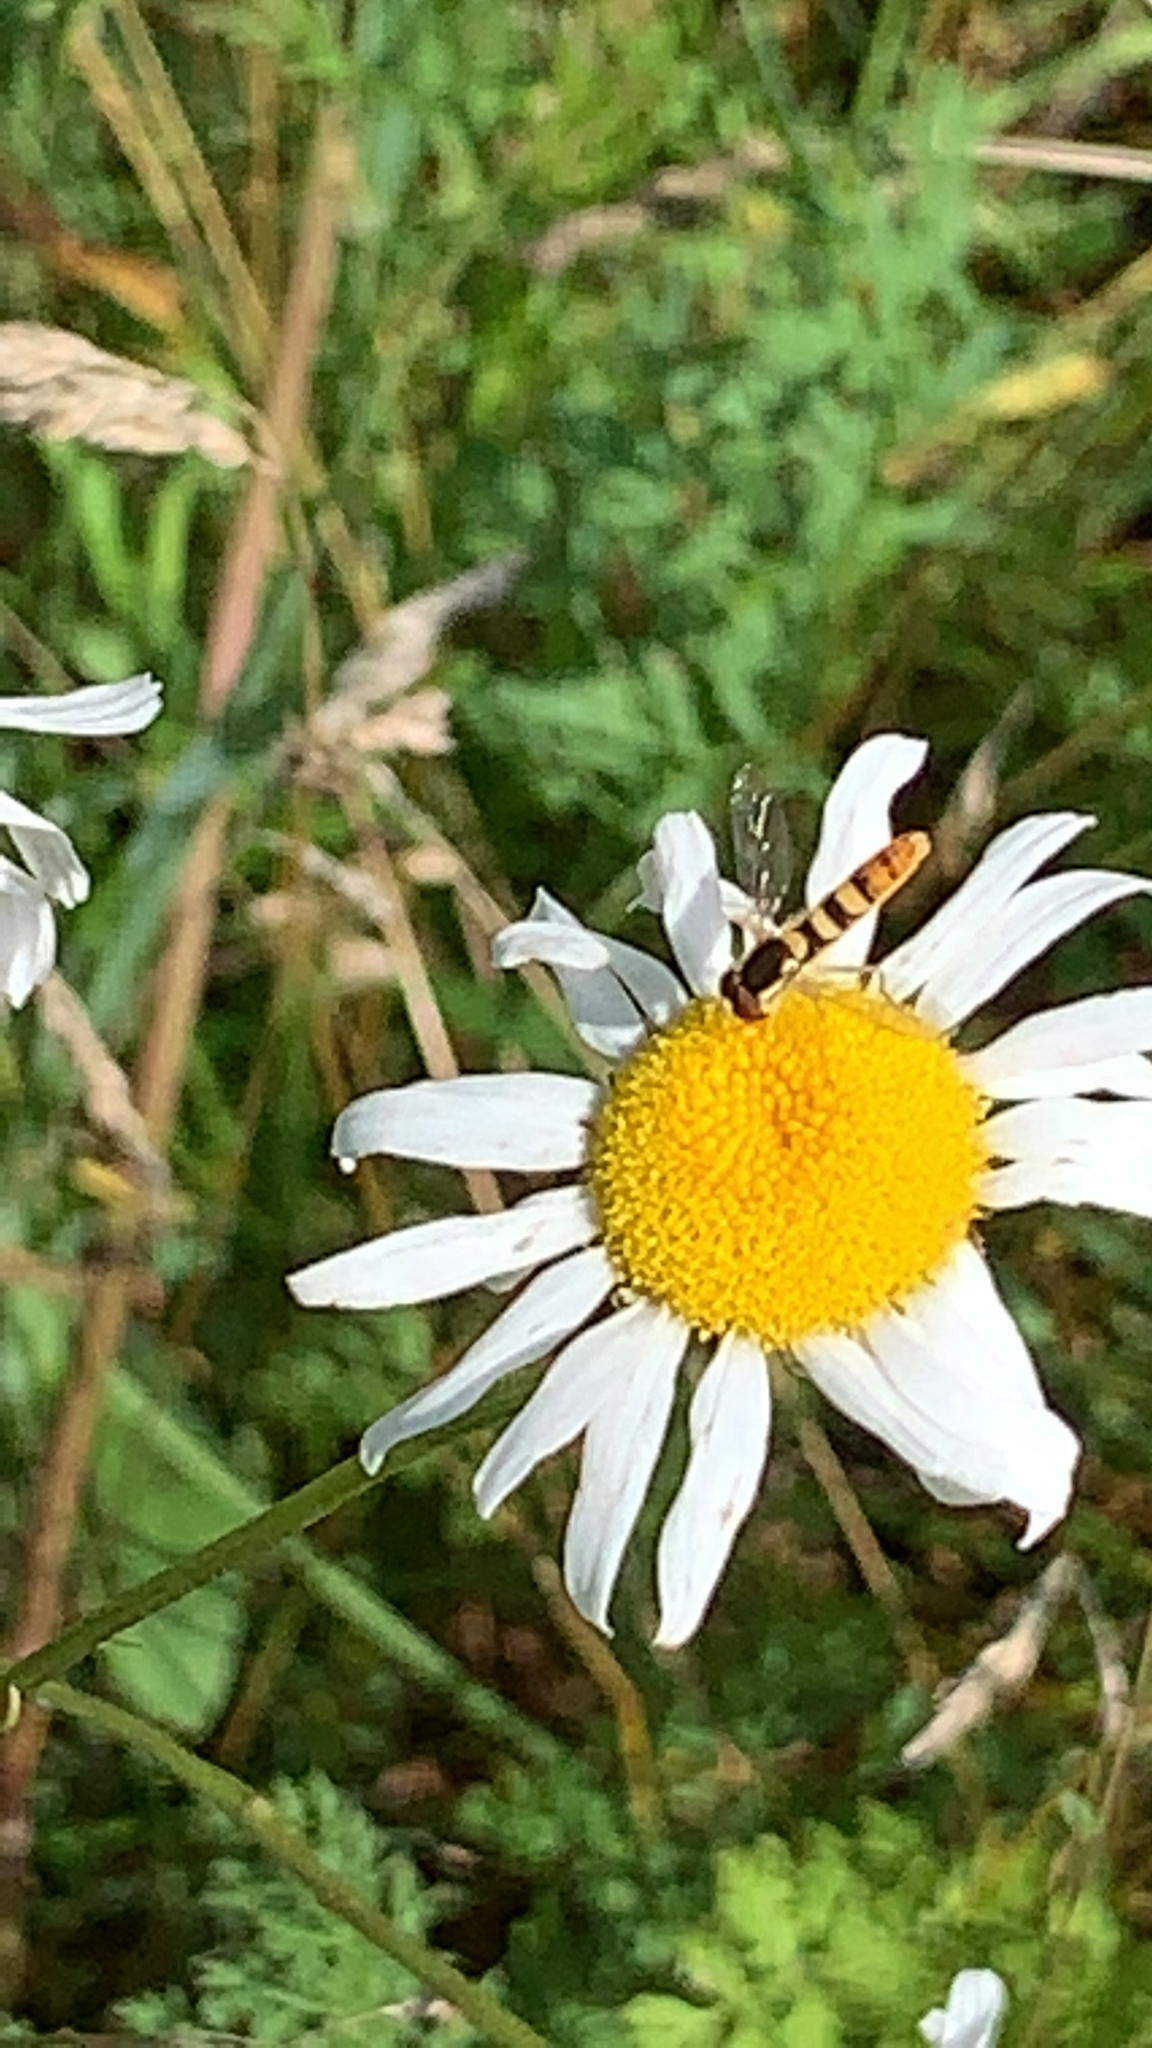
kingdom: Animalia
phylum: Arthropoda
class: Insecta
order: Diptera
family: Syrphidae
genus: Sphaerophoria
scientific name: Sphaerophoria
